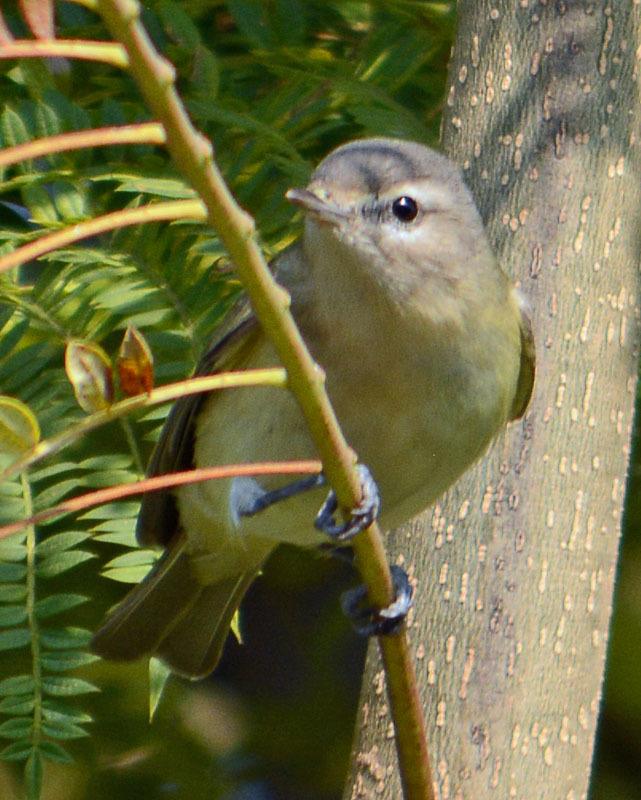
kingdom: Animalia
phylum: Chordata
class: Aves
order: Passeriformes
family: Vireonidae
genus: Vireo
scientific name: Vireo gilvus
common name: Warbling vireo
